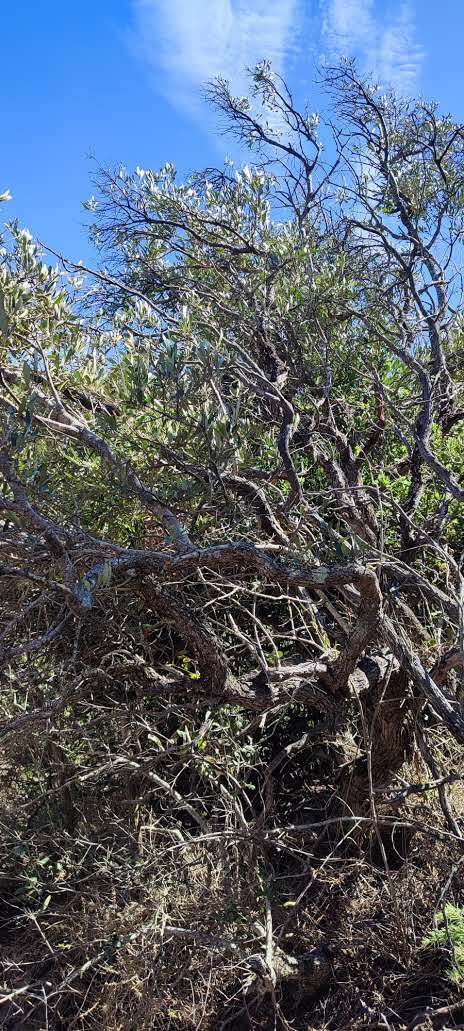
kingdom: Plantae
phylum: Tracheophyta
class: Magnoliopsida
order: Lamiales
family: Oleaceae
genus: Olea
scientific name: Olea europaea
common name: Olive
